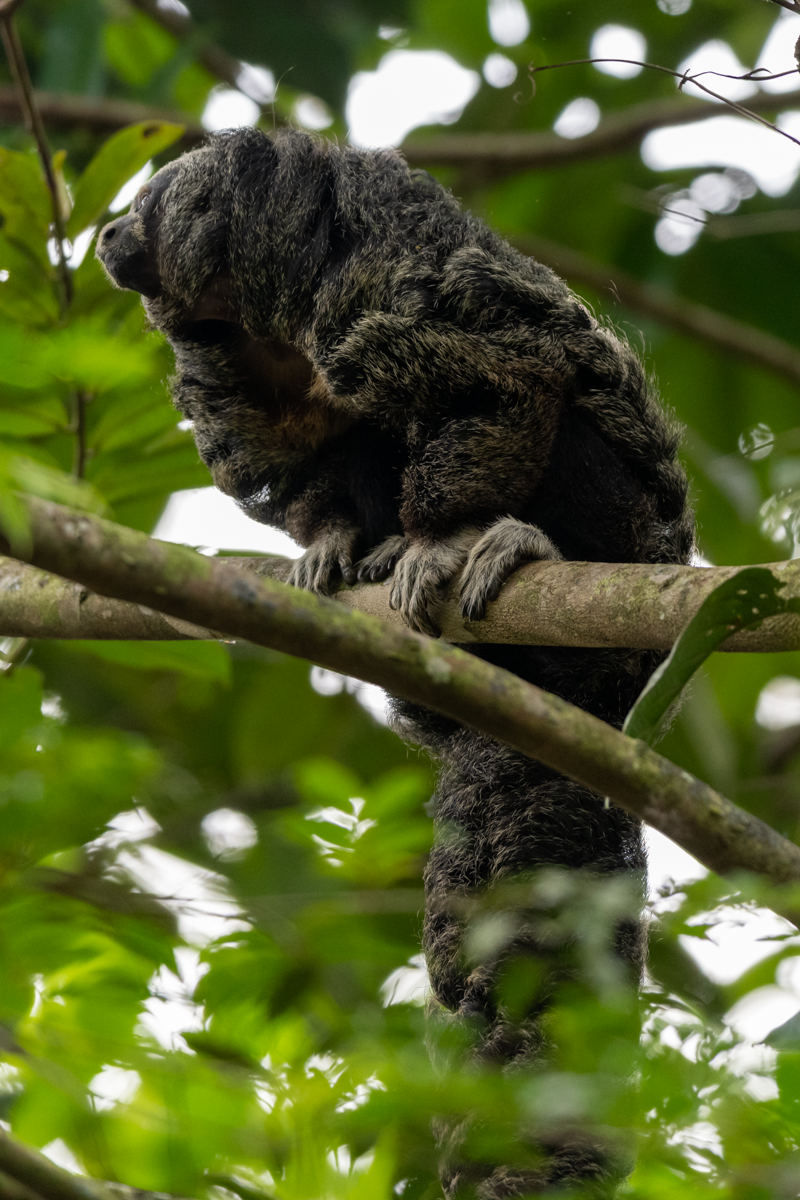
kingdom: Animalia
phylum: Chordata
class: Mammalia
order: Primates
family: Pitheciidae
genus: Pithecia
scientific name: Pithecia napensis
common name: Napo saki
